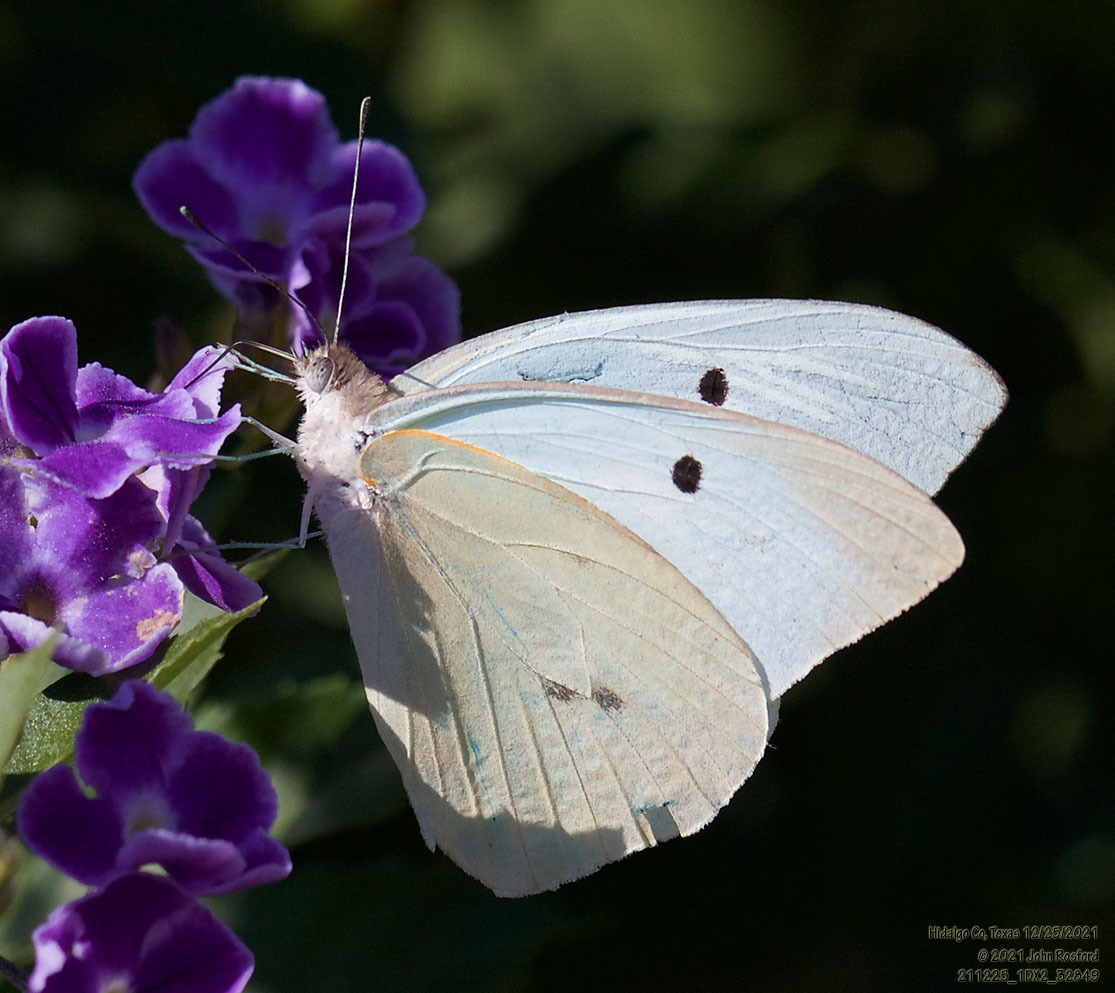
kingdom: Animalia
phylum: Arthropoda
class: Insecta
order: Lepidoptera
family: Pieridae
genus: Ganyra
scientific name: Ganyra josephina
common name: Giant white
